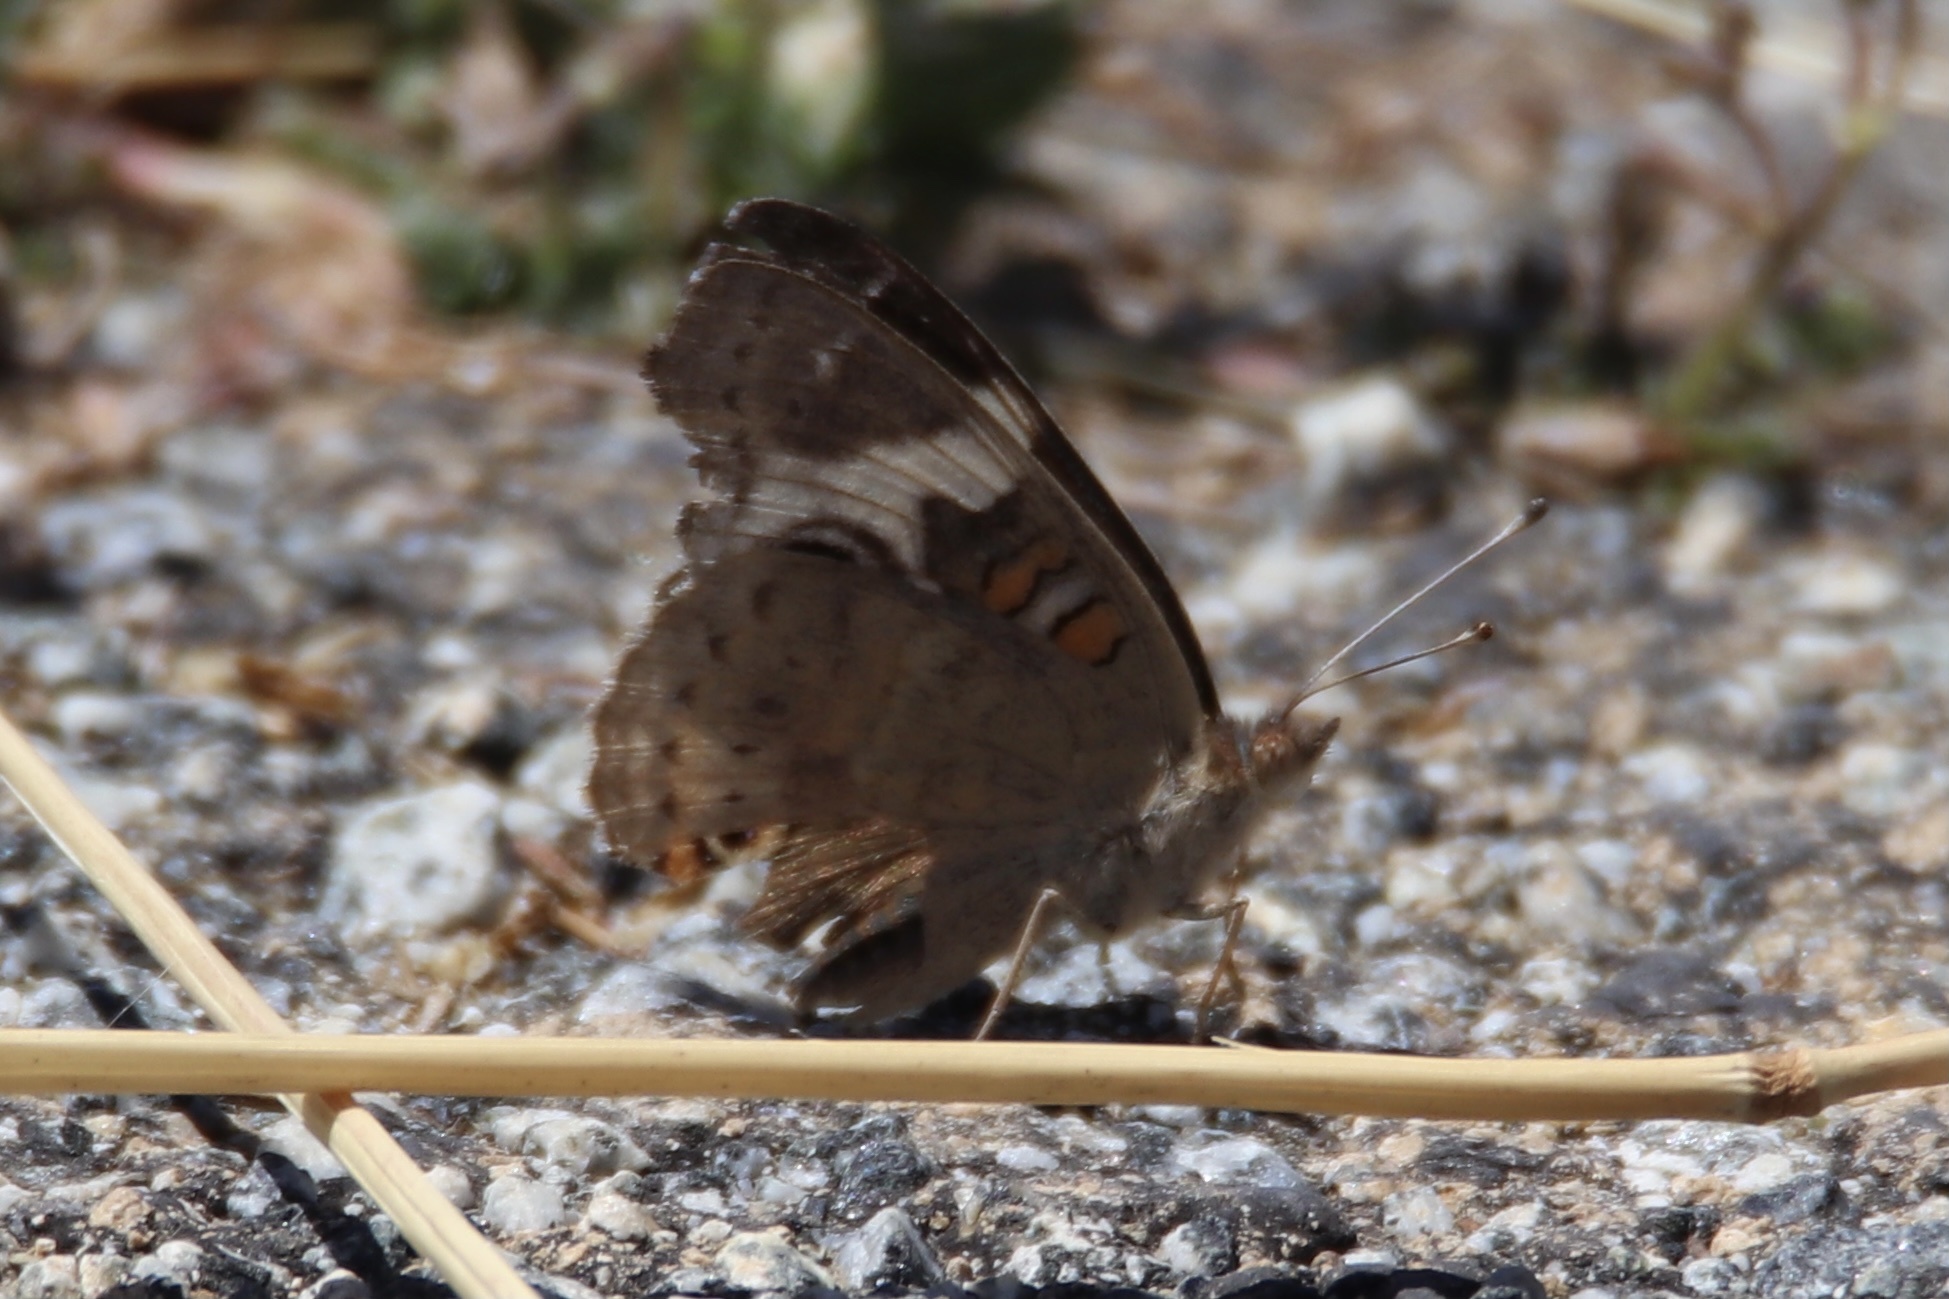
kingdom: Animalia
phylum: Arthropoda
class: Insecta
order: Lepidoptera
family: Nymphalidae
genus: Junonia
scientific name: Junonia grisea
